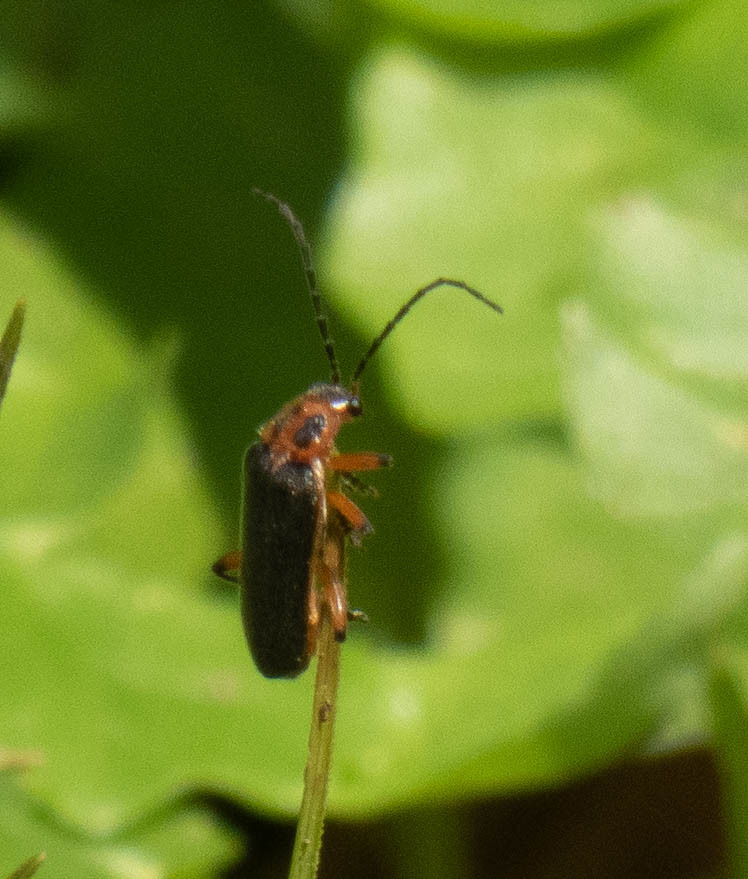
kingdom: Animalia
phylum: Arthropoda
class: Insecta
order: Coleoptera
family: Cantharidae
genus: Atalantycha
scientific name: Atalantycha bilineata
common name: Two-lined leatherwing
